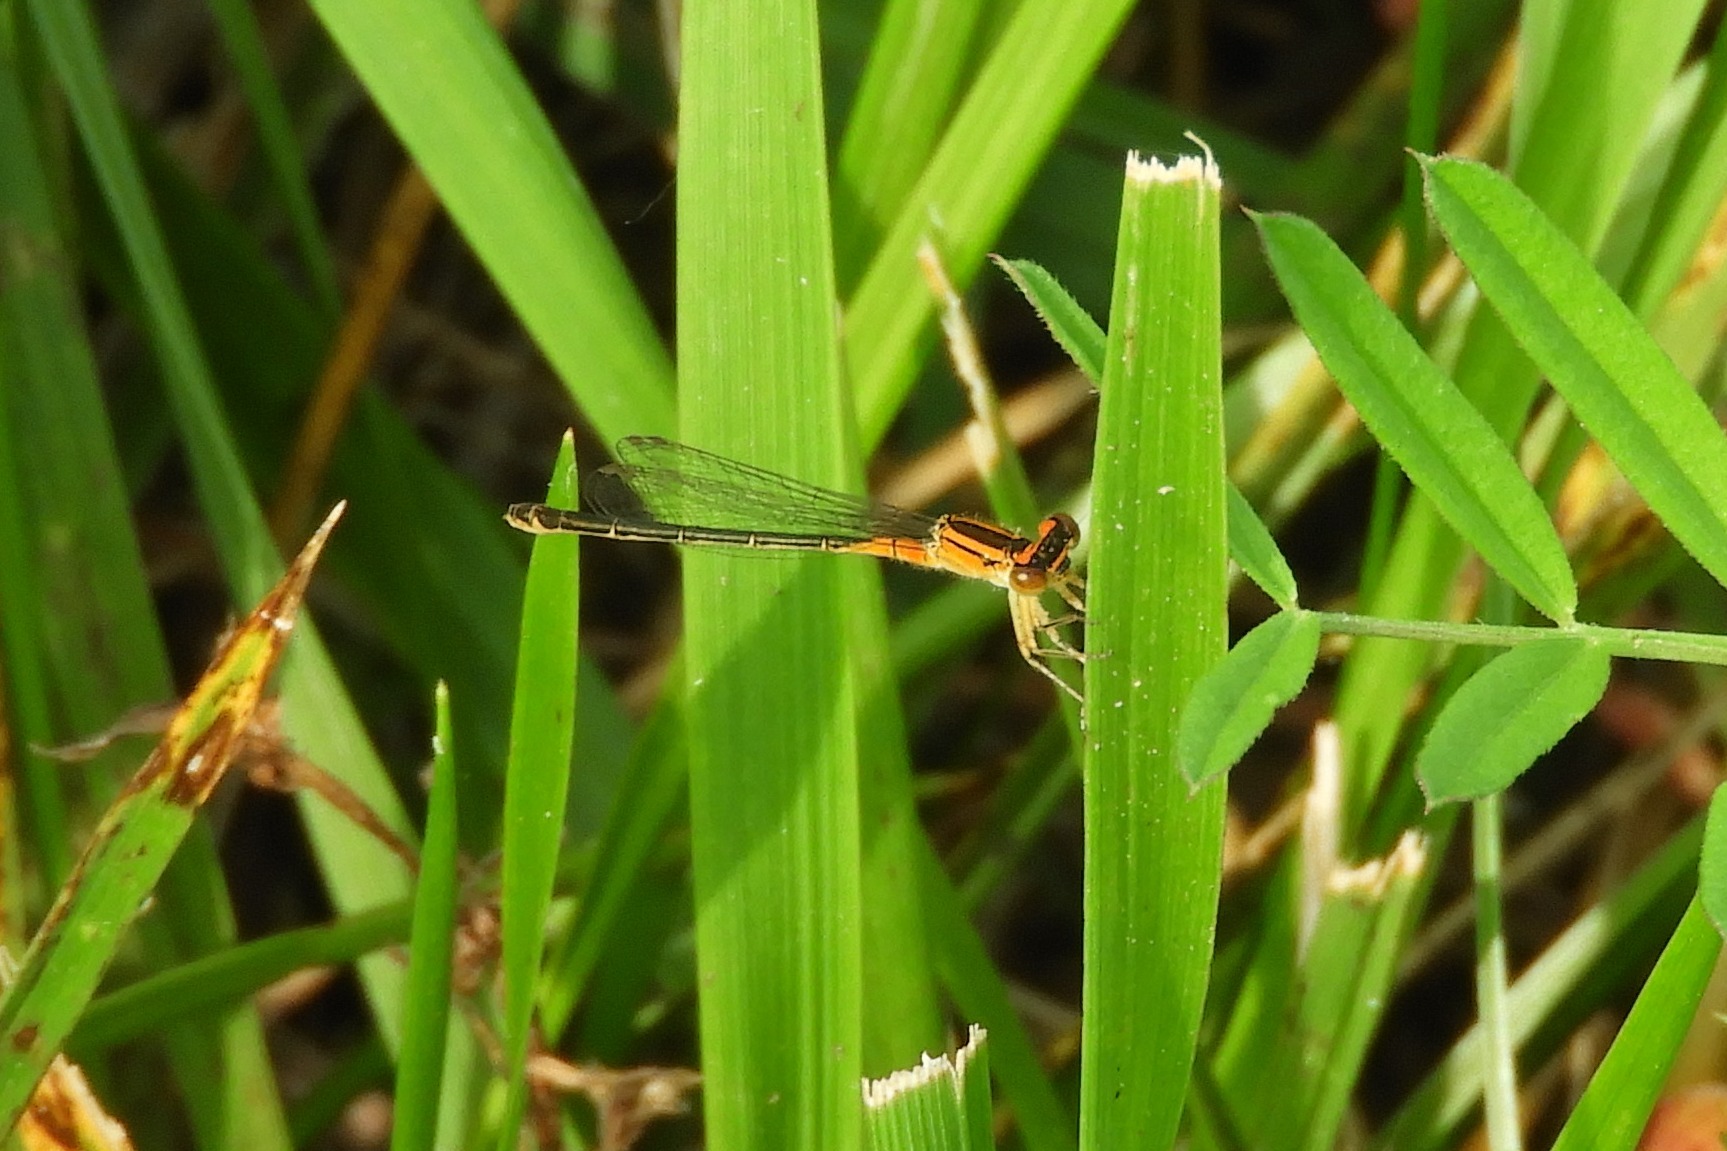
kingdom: Animalia
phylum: Arthropoda
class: Insecta
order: Odonata
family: Coenagrionidae
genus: Ischnura
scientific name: Ischnura verticalis
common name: Eastern forktail
